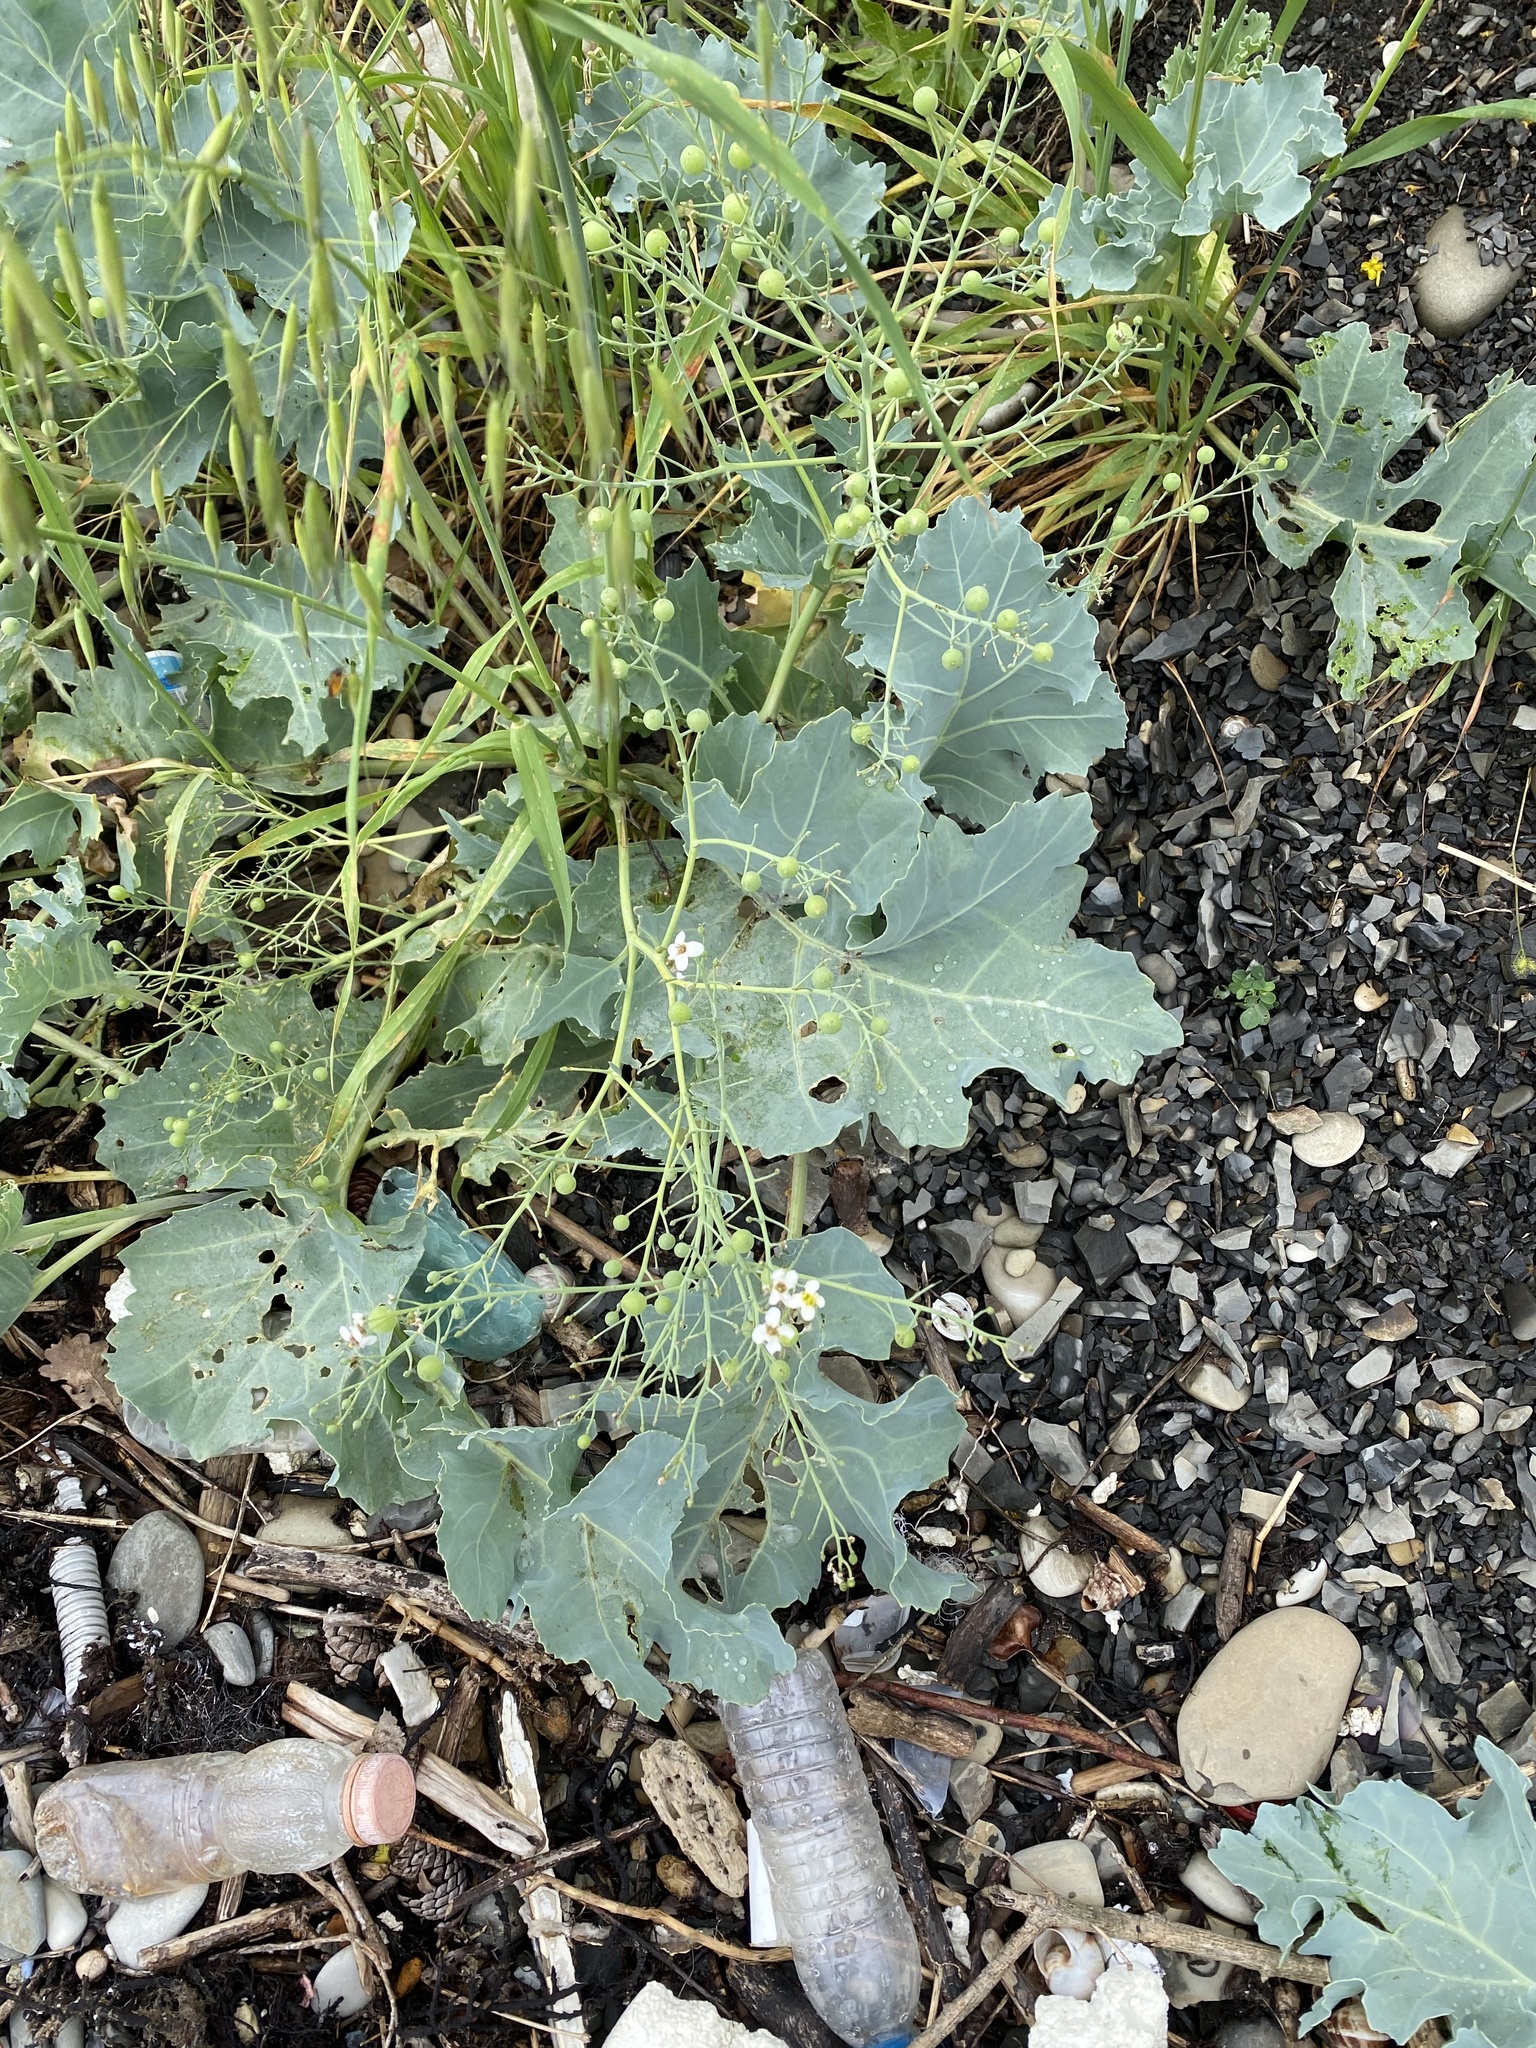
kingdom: Plantae
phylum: Tracheophyta
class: Magnoliopsida
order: Brassicales
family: Brassicaceae
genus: Crambe
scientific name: Crambe maritima
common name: Sea-kale
